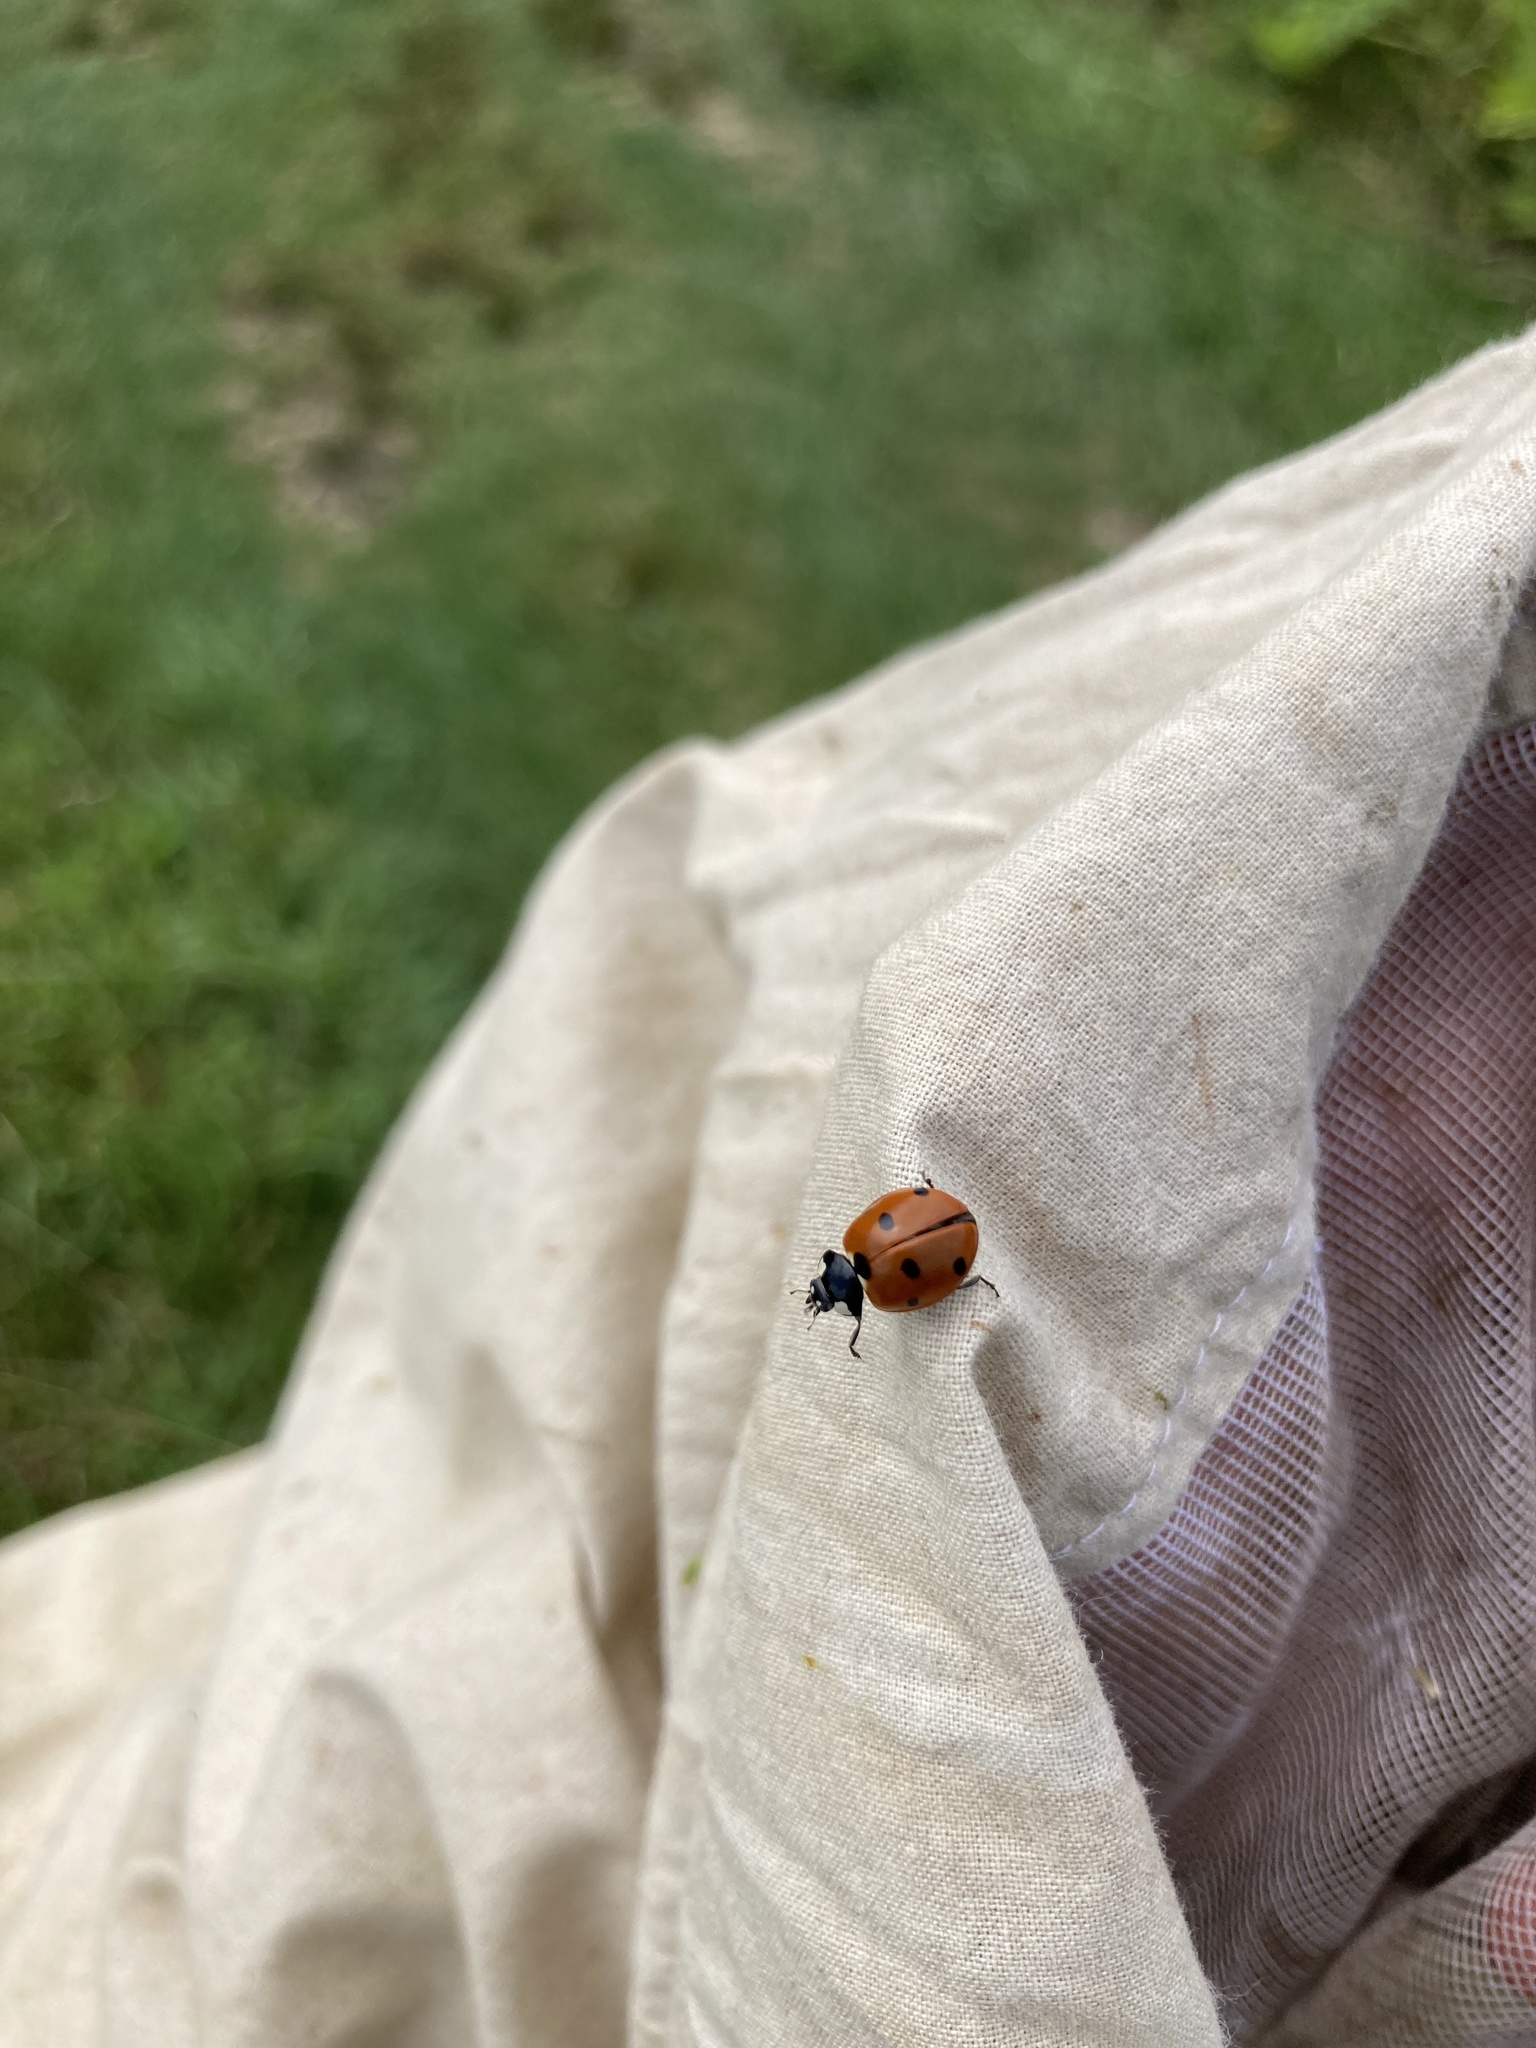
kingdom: Animalia
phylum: Arthropoda
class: Insecta
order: Coleoptera
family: Coccinellidae
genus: Coccinella
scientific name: Coccinella septempunctata
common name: Sevenspotted lady beetle
